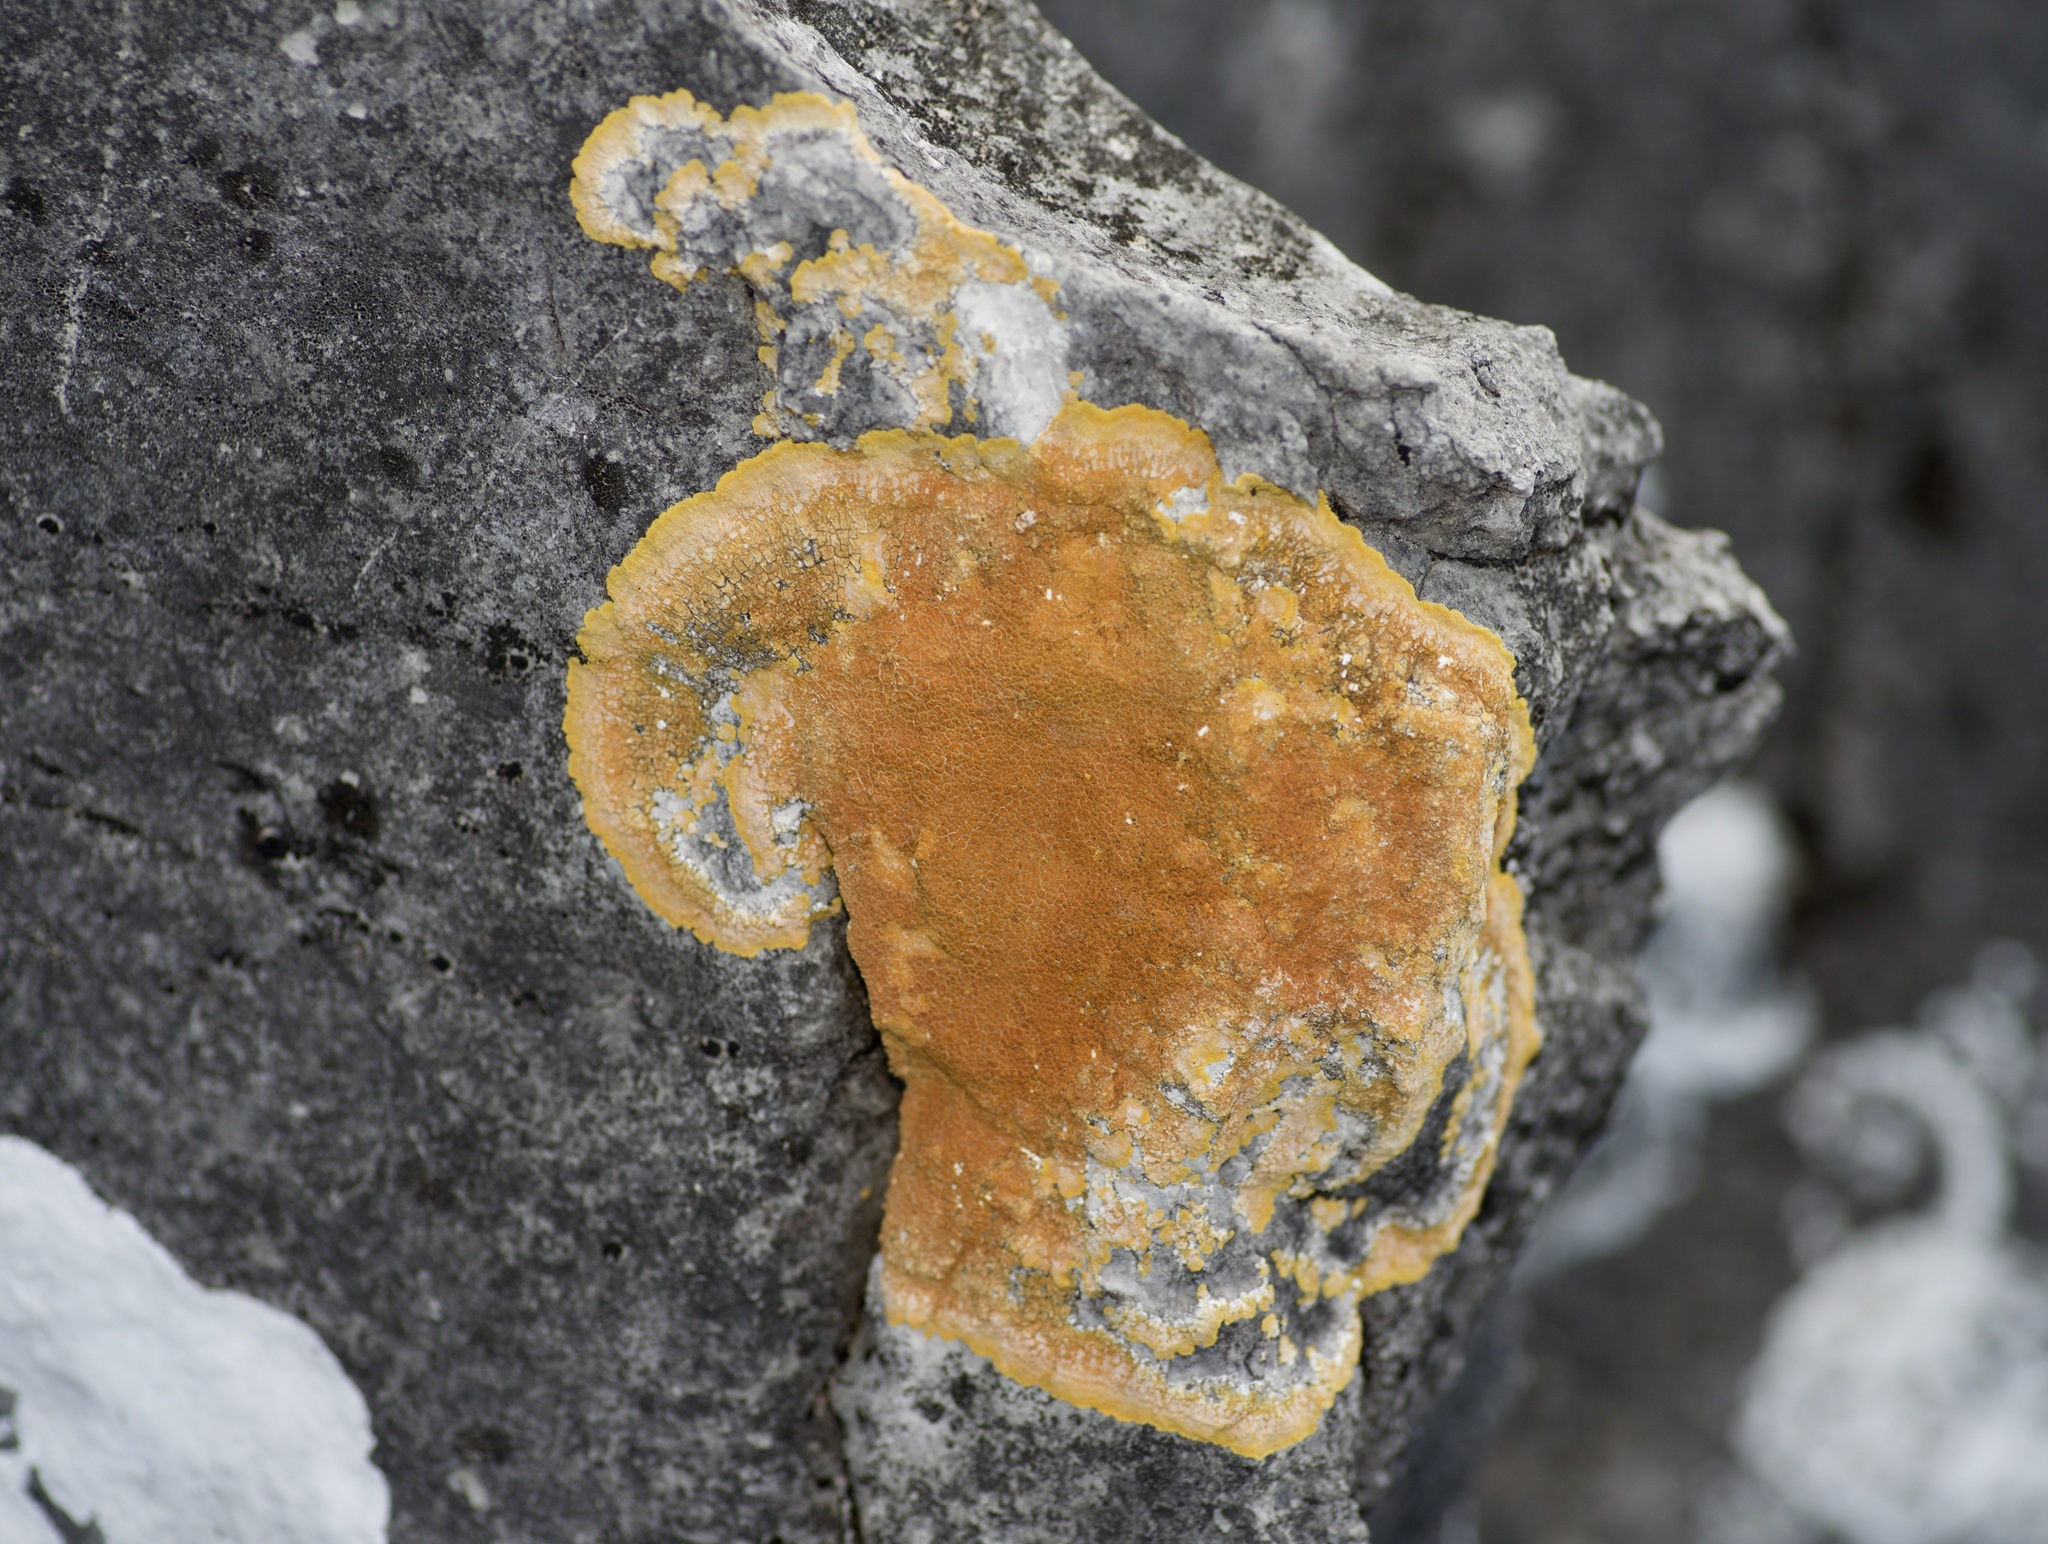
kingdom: Fungi
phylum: Ascomycota
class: Lecanoromycetes
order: Teloschistales
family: Teloschistaceae
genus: Caloplaca
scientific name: Caloplaca eugyra
